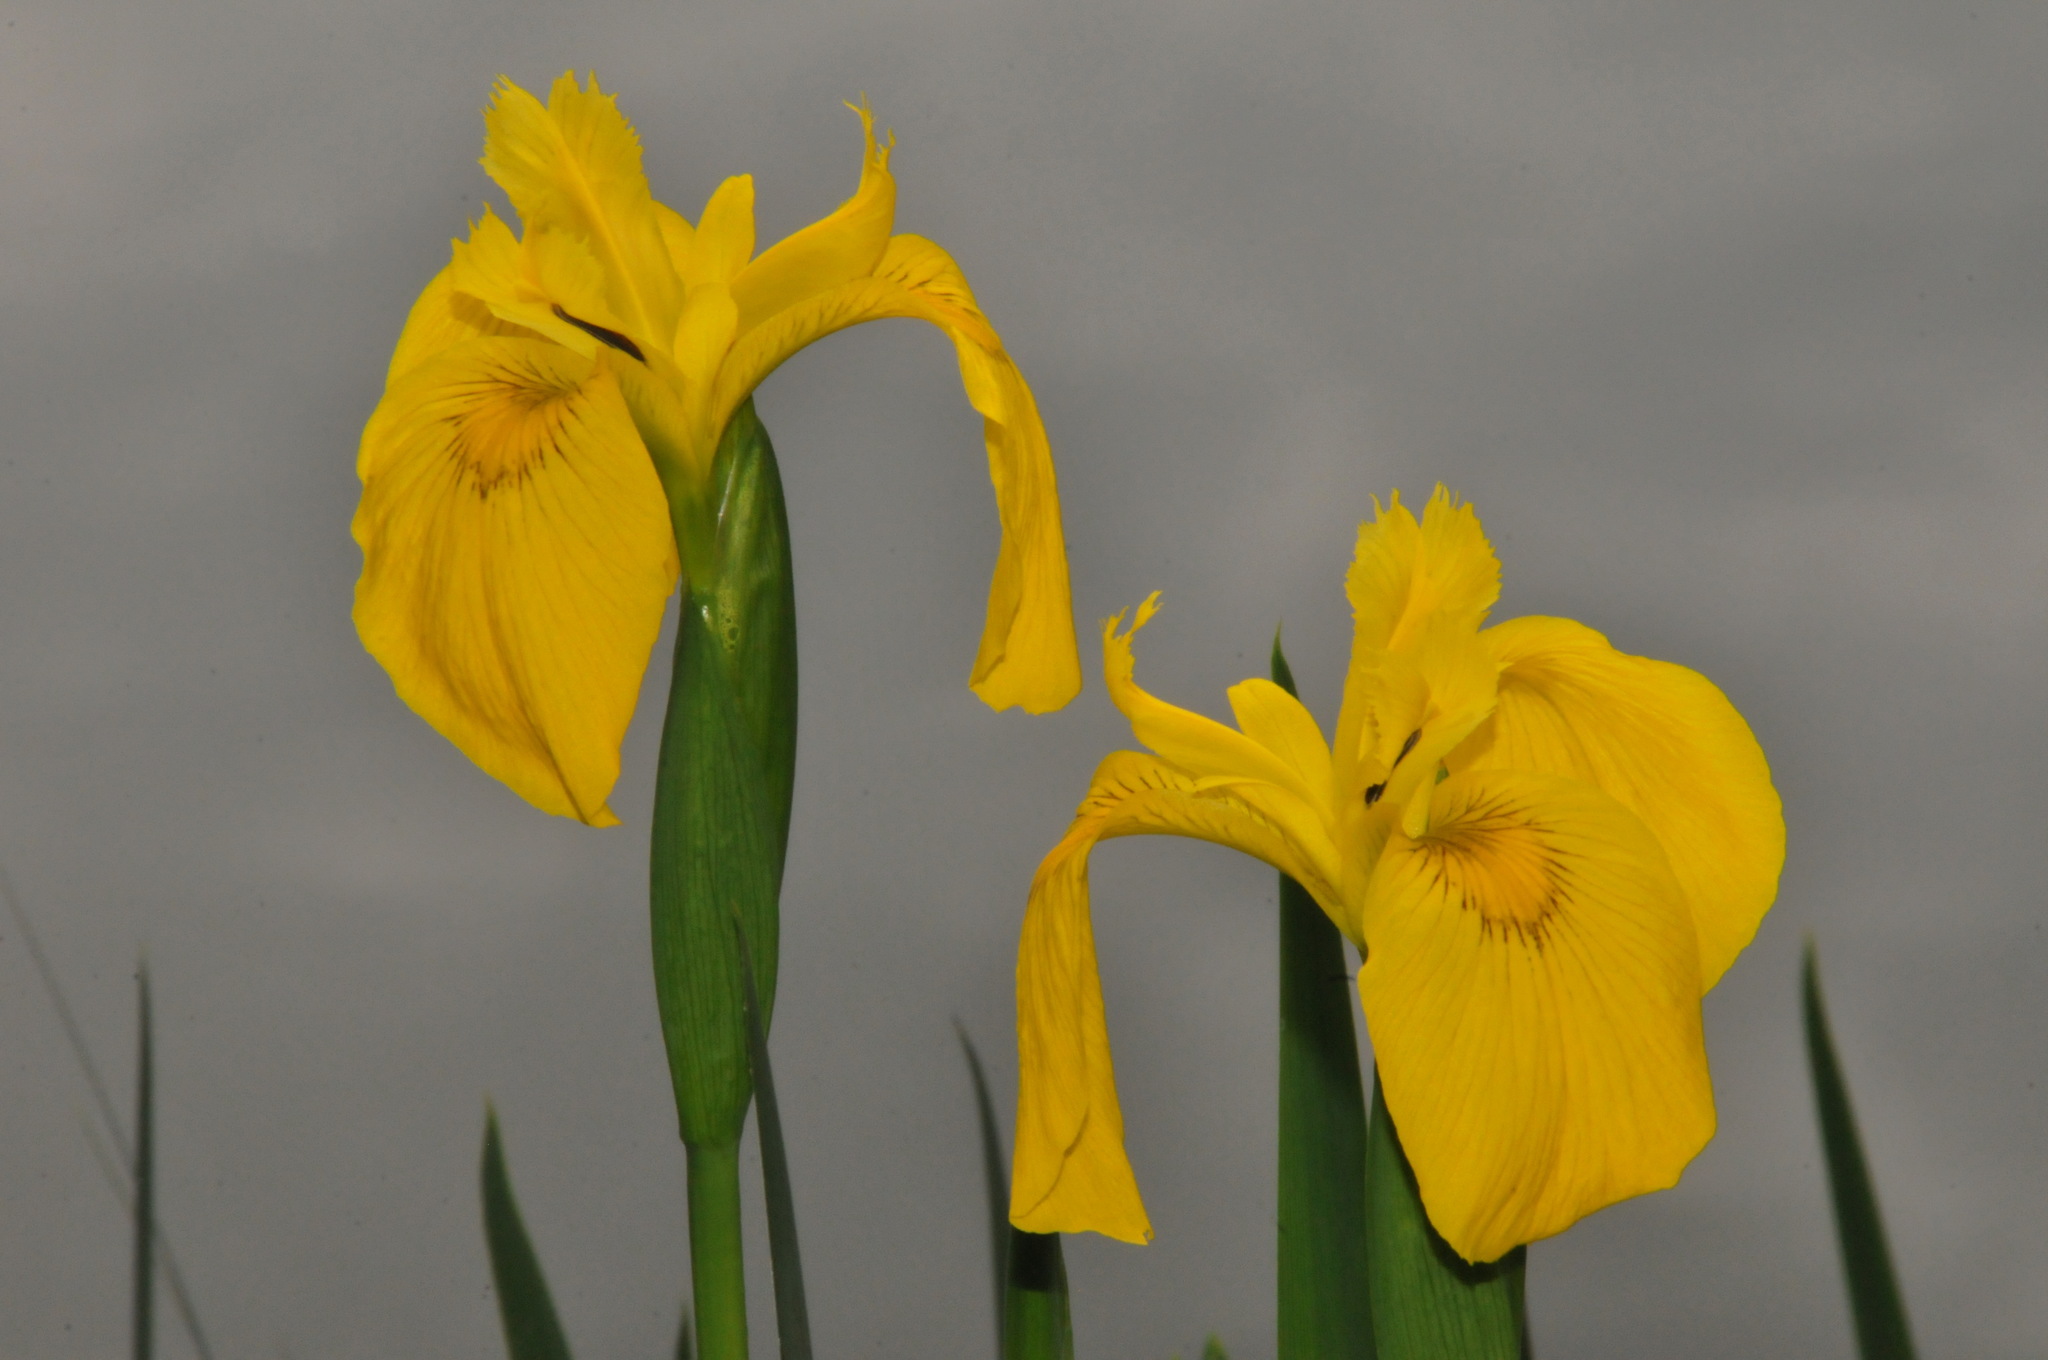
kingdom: Plantae
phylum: Tracheophyta
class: Liliopsida
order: Asparagales
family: Iridaceae
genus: Iris
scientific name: Iris pseudacorus
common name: Yellow flag
